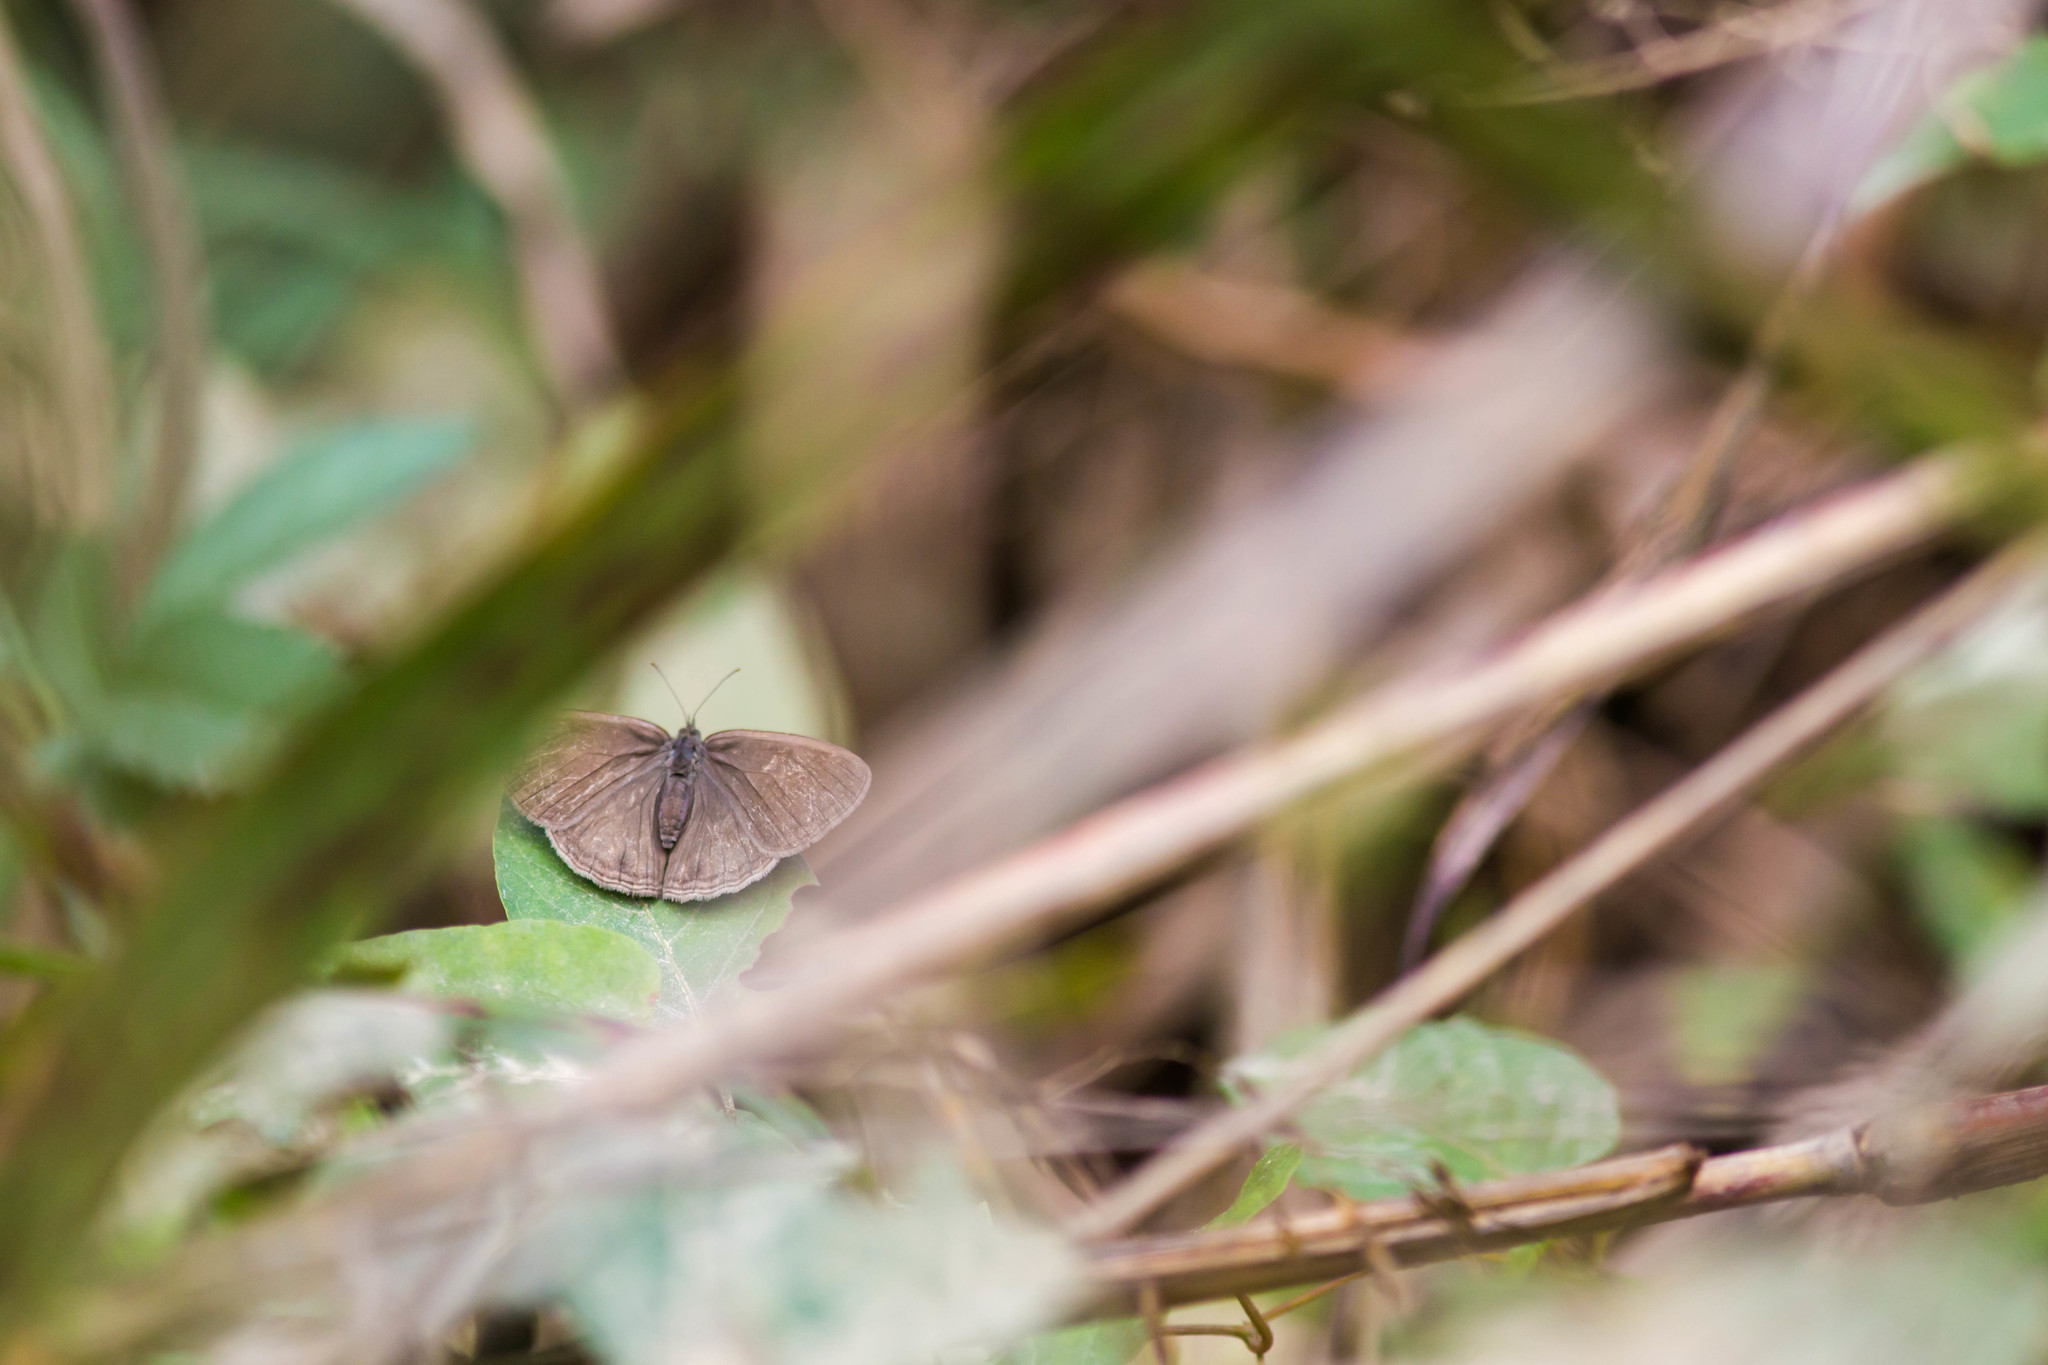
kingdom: Animalia
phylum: Arthropoda
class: Insecta
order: Lepidoptera
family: Nymphalidae
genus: Hermeuptychia
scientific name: Hermeuptychia hermes
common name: Hermes satyr
